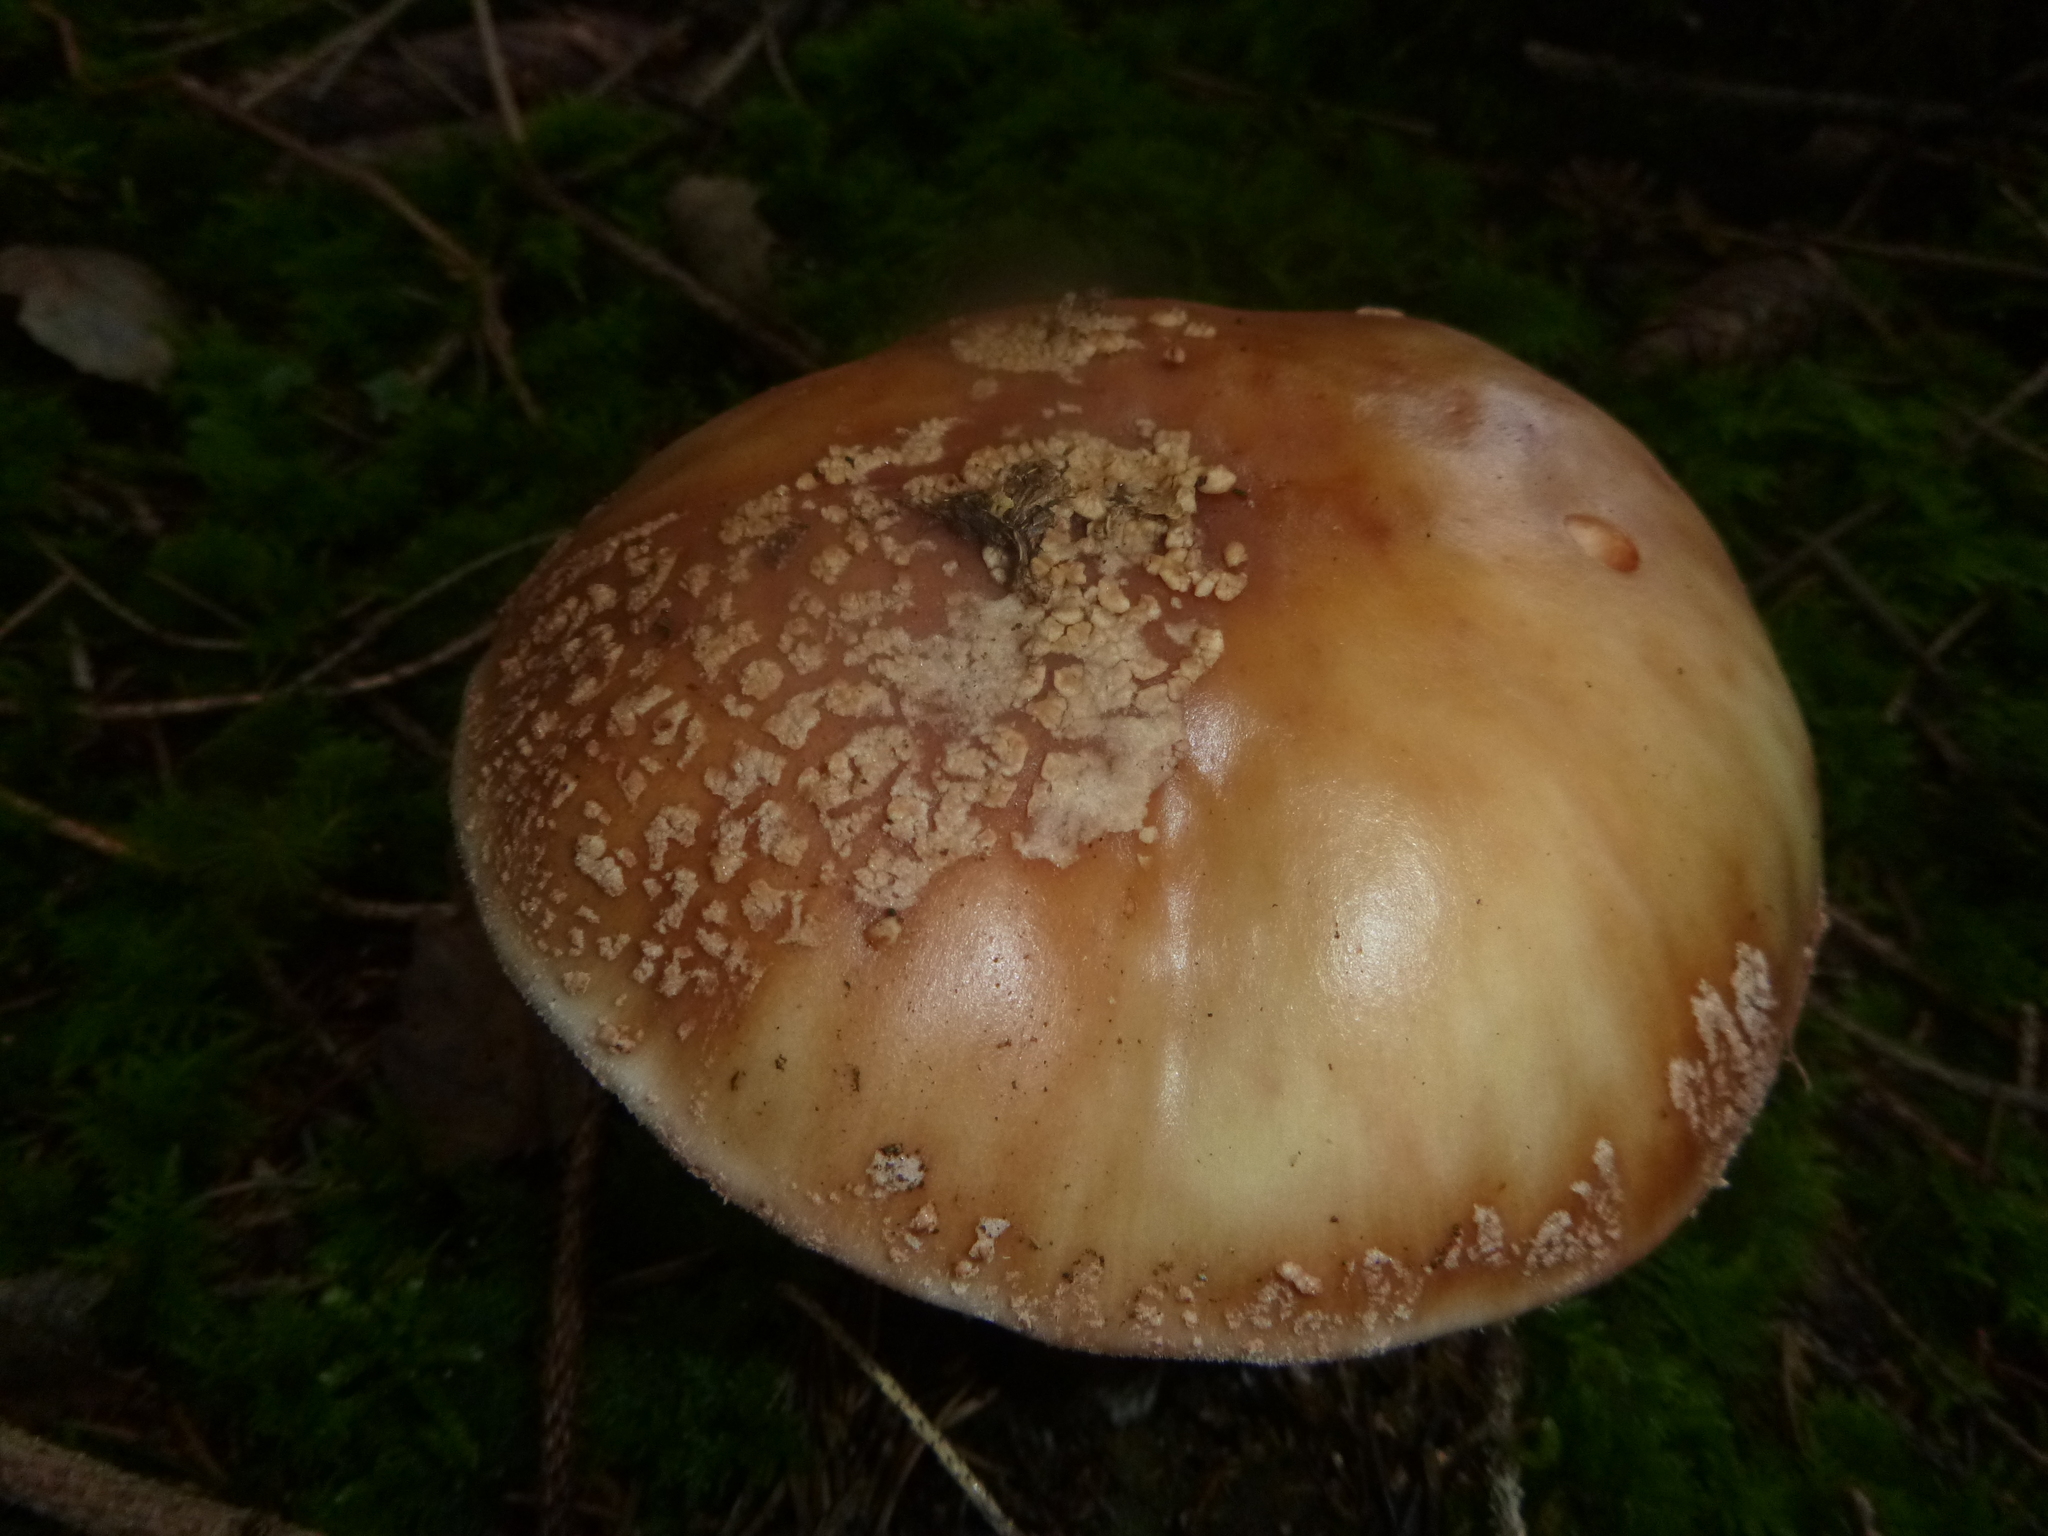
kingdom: Fungi
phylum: Basidiomycota
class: Agaricomycetes
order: Agaricales
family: Amanitaceae
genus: Amanita
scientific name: Amanita rubescens
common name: Blusher
